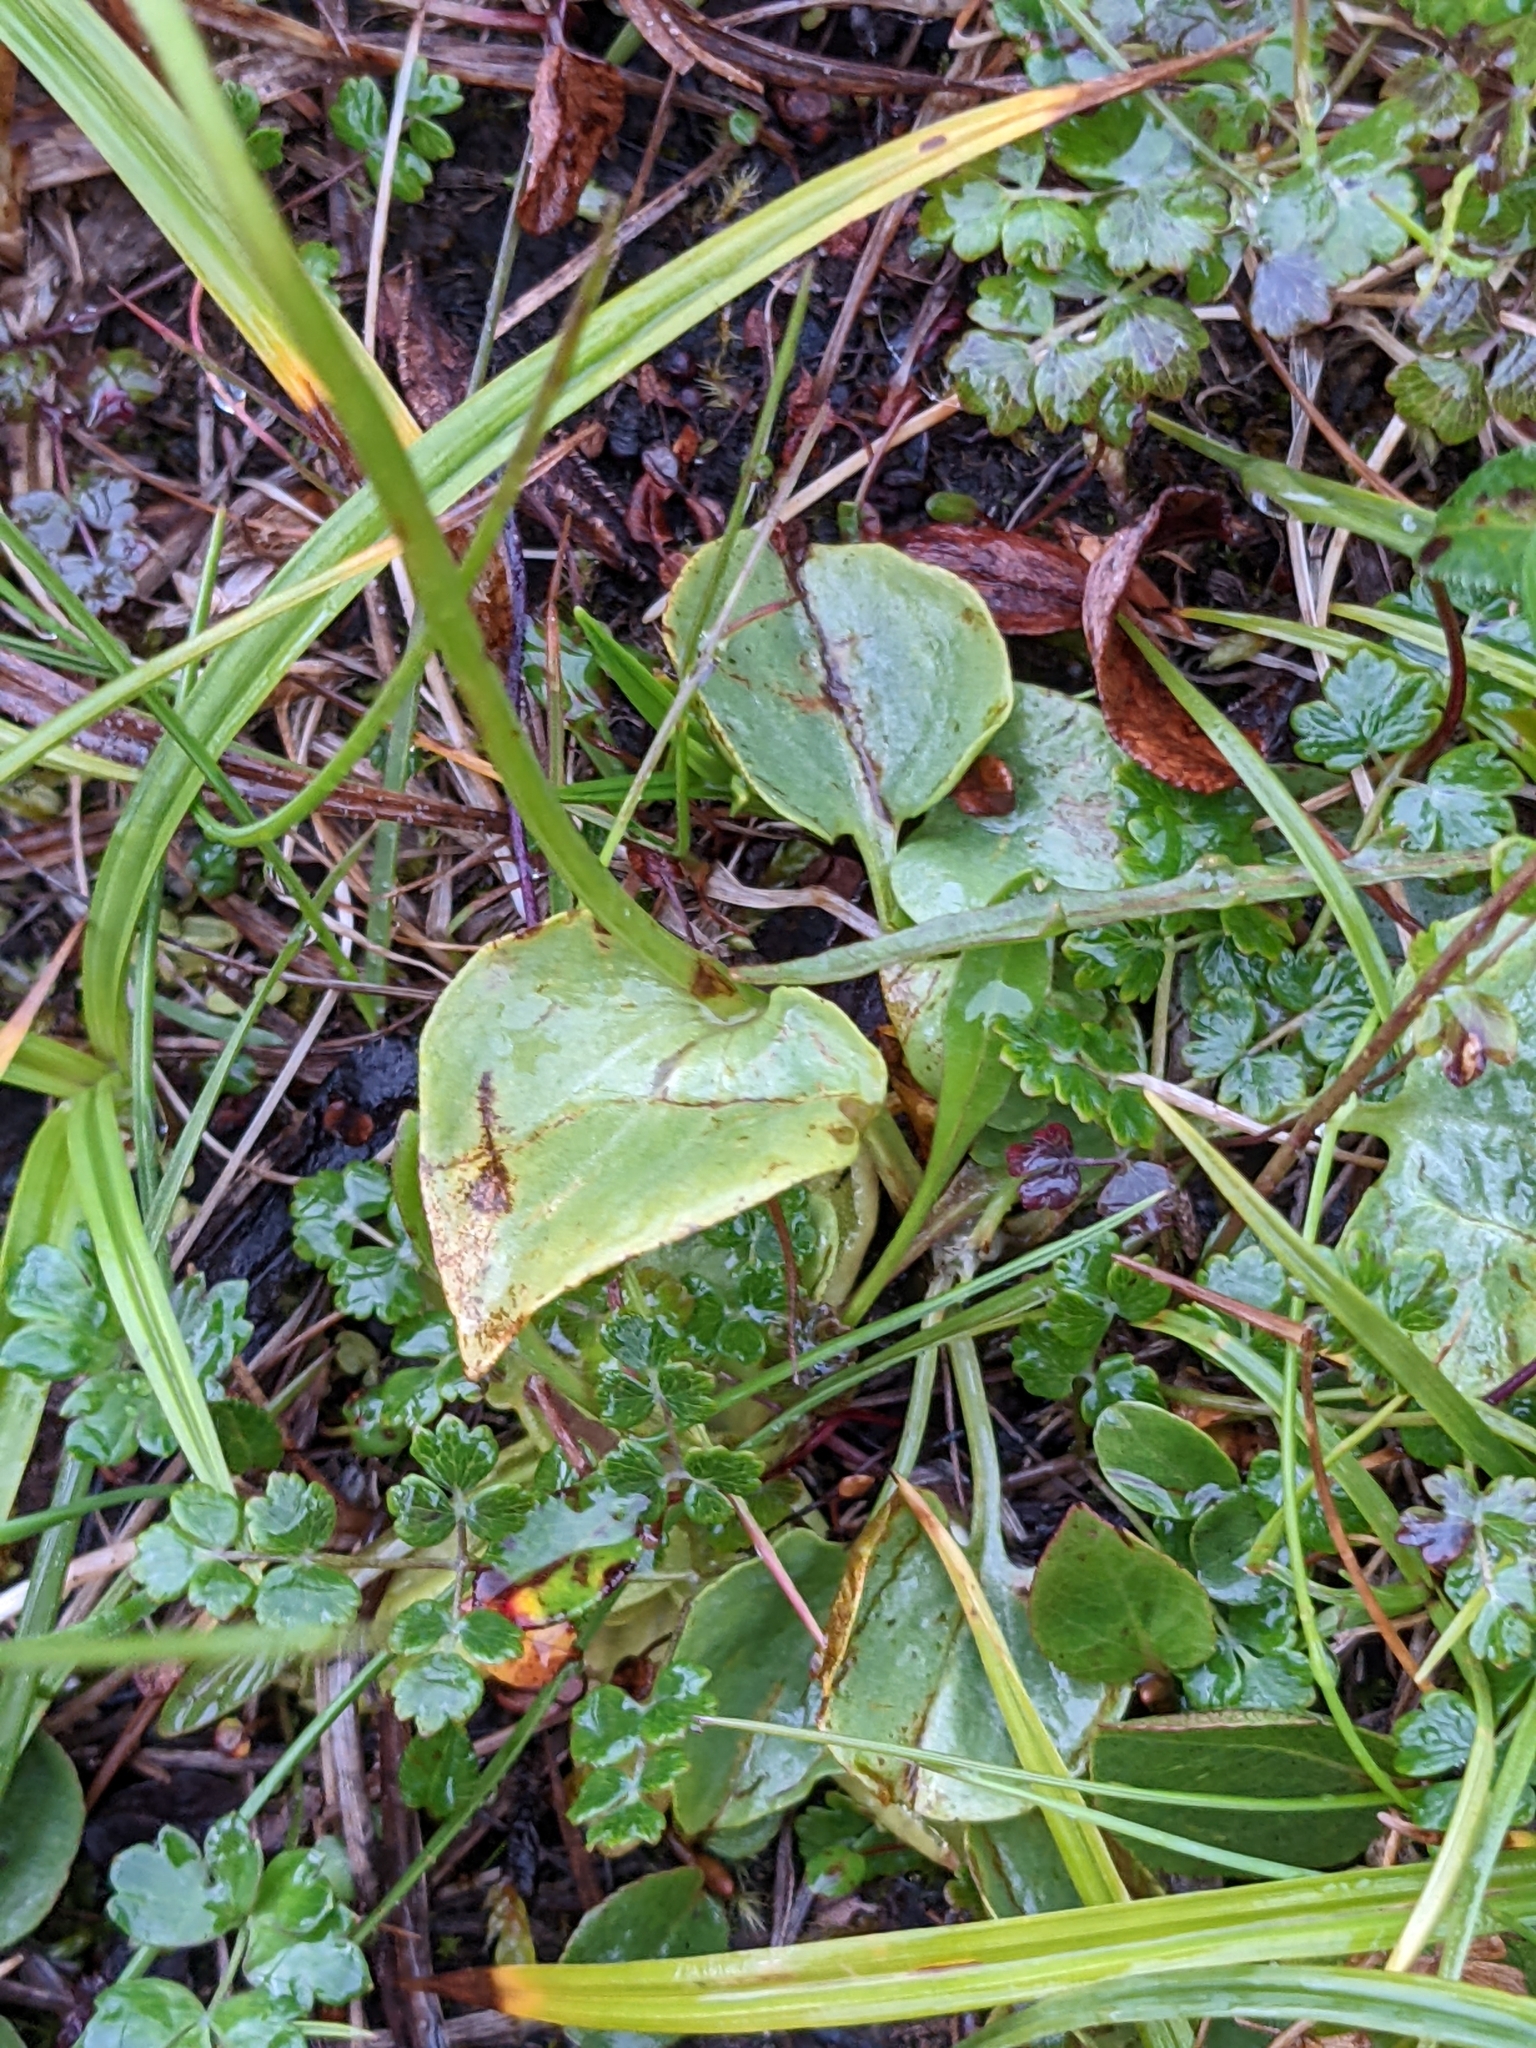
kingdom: Plantae
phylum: Tracheophyta
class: Magnoliopsida
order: Celastrales
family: Parnassiaceae
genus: Parnassia
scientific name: Parnassia palustris
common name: Grass-of-parnassus
